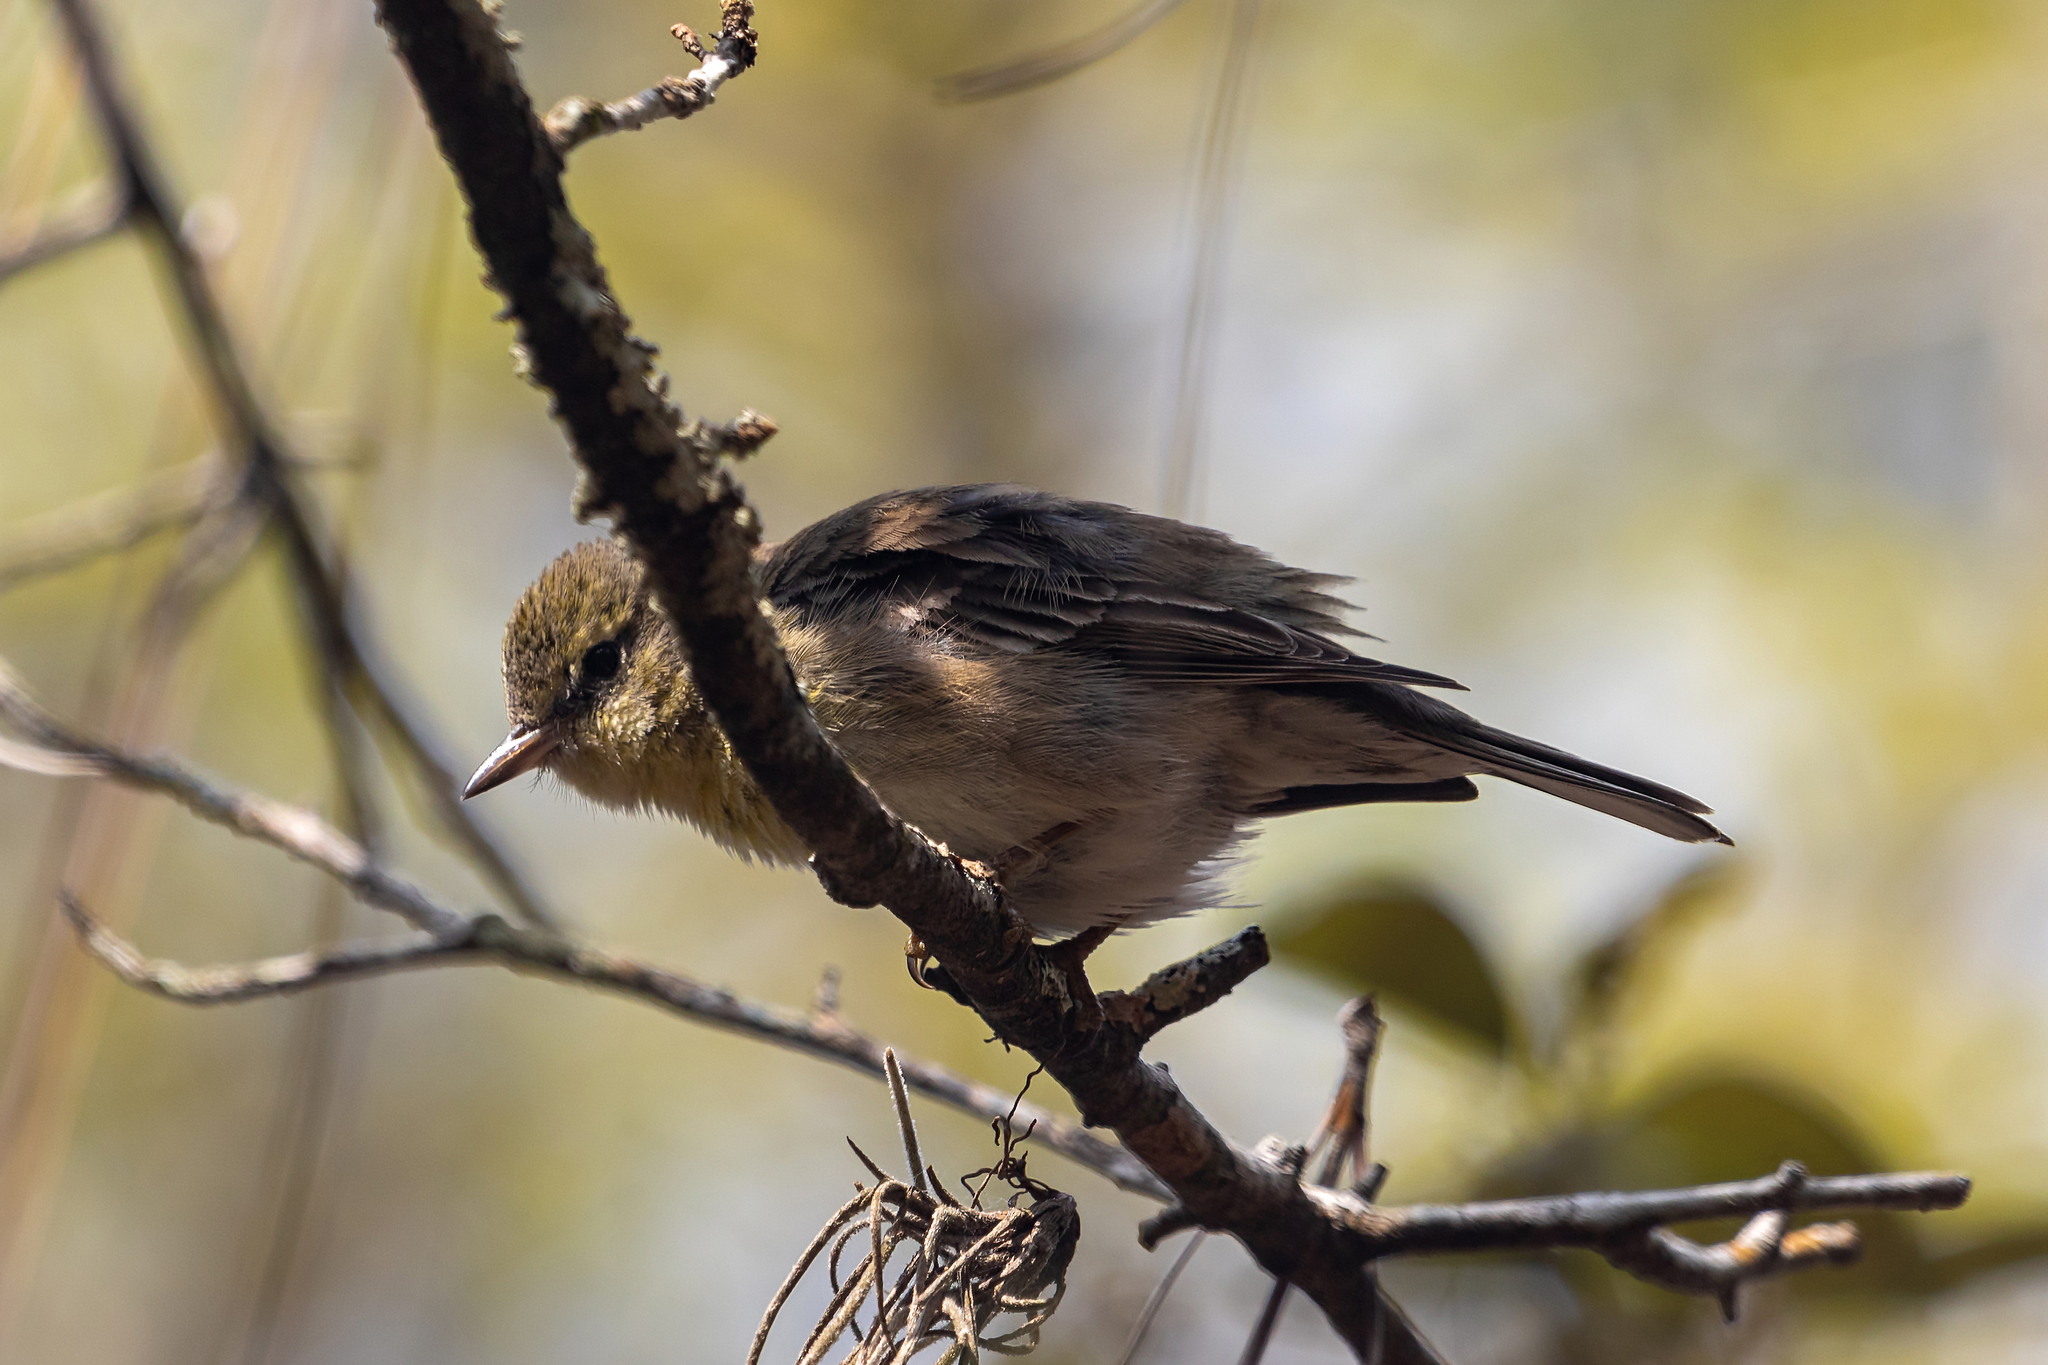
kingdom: Animalia
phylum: Chordata
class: Aves
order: Passeriformes
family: Parulidae
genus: Setophaga
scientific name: Setophaga pinus
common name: Pine warbler
